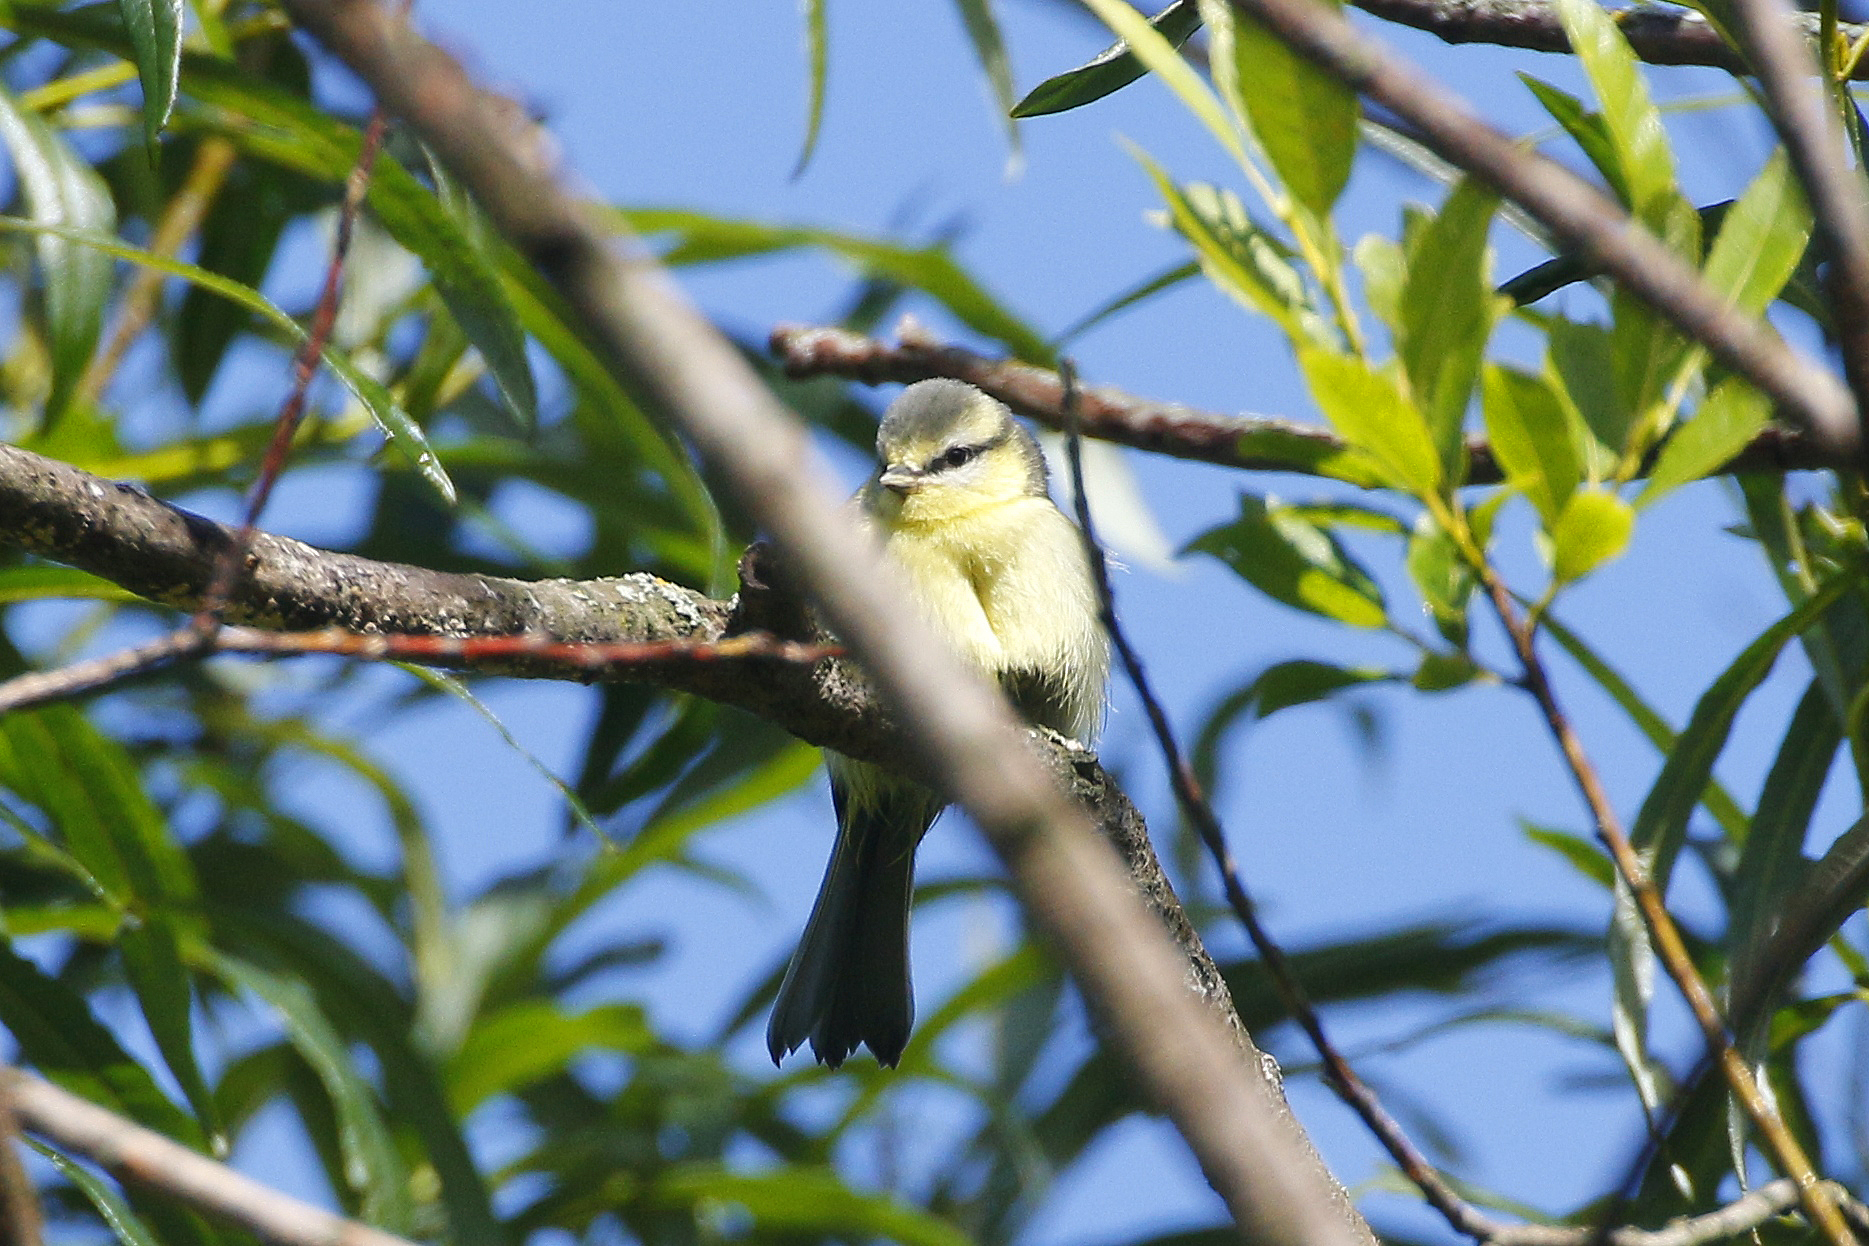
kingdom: Animalia
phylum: Chordata
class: Aves
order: Passeriformes
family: Paridae
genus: Cyanistes
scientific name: Cyanistes caeruleus
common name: Eurasian blue tit
